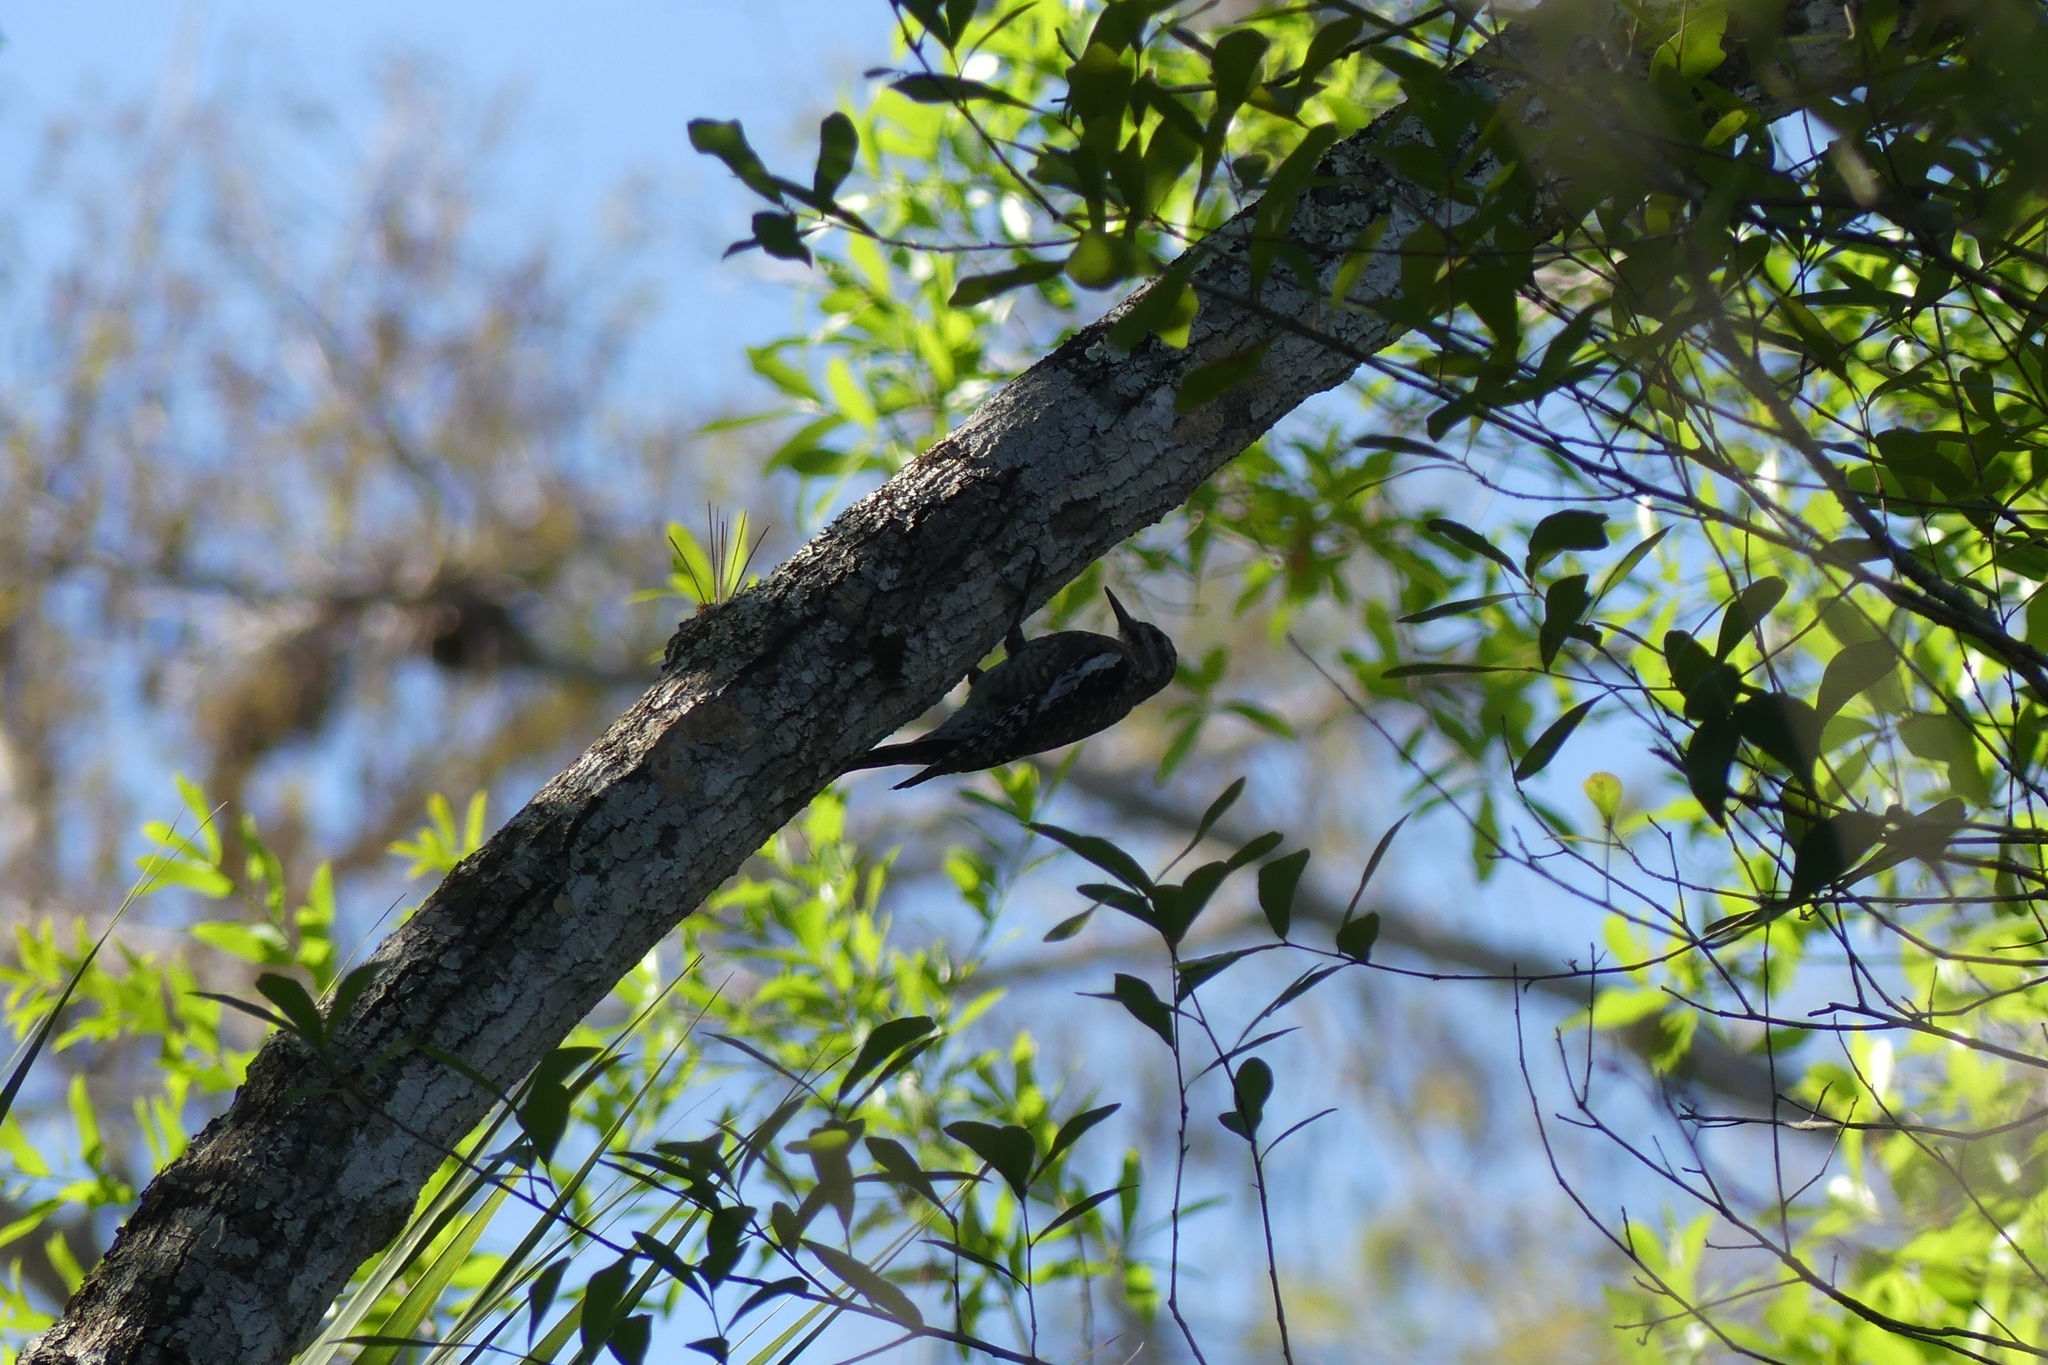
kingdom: Animalia
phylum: Chordata
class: Aves
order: Piciformes
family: Picidae
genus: Sphyrapicus
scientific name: Sphyrapicus varius
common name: Yellow-bellied sapsucker
